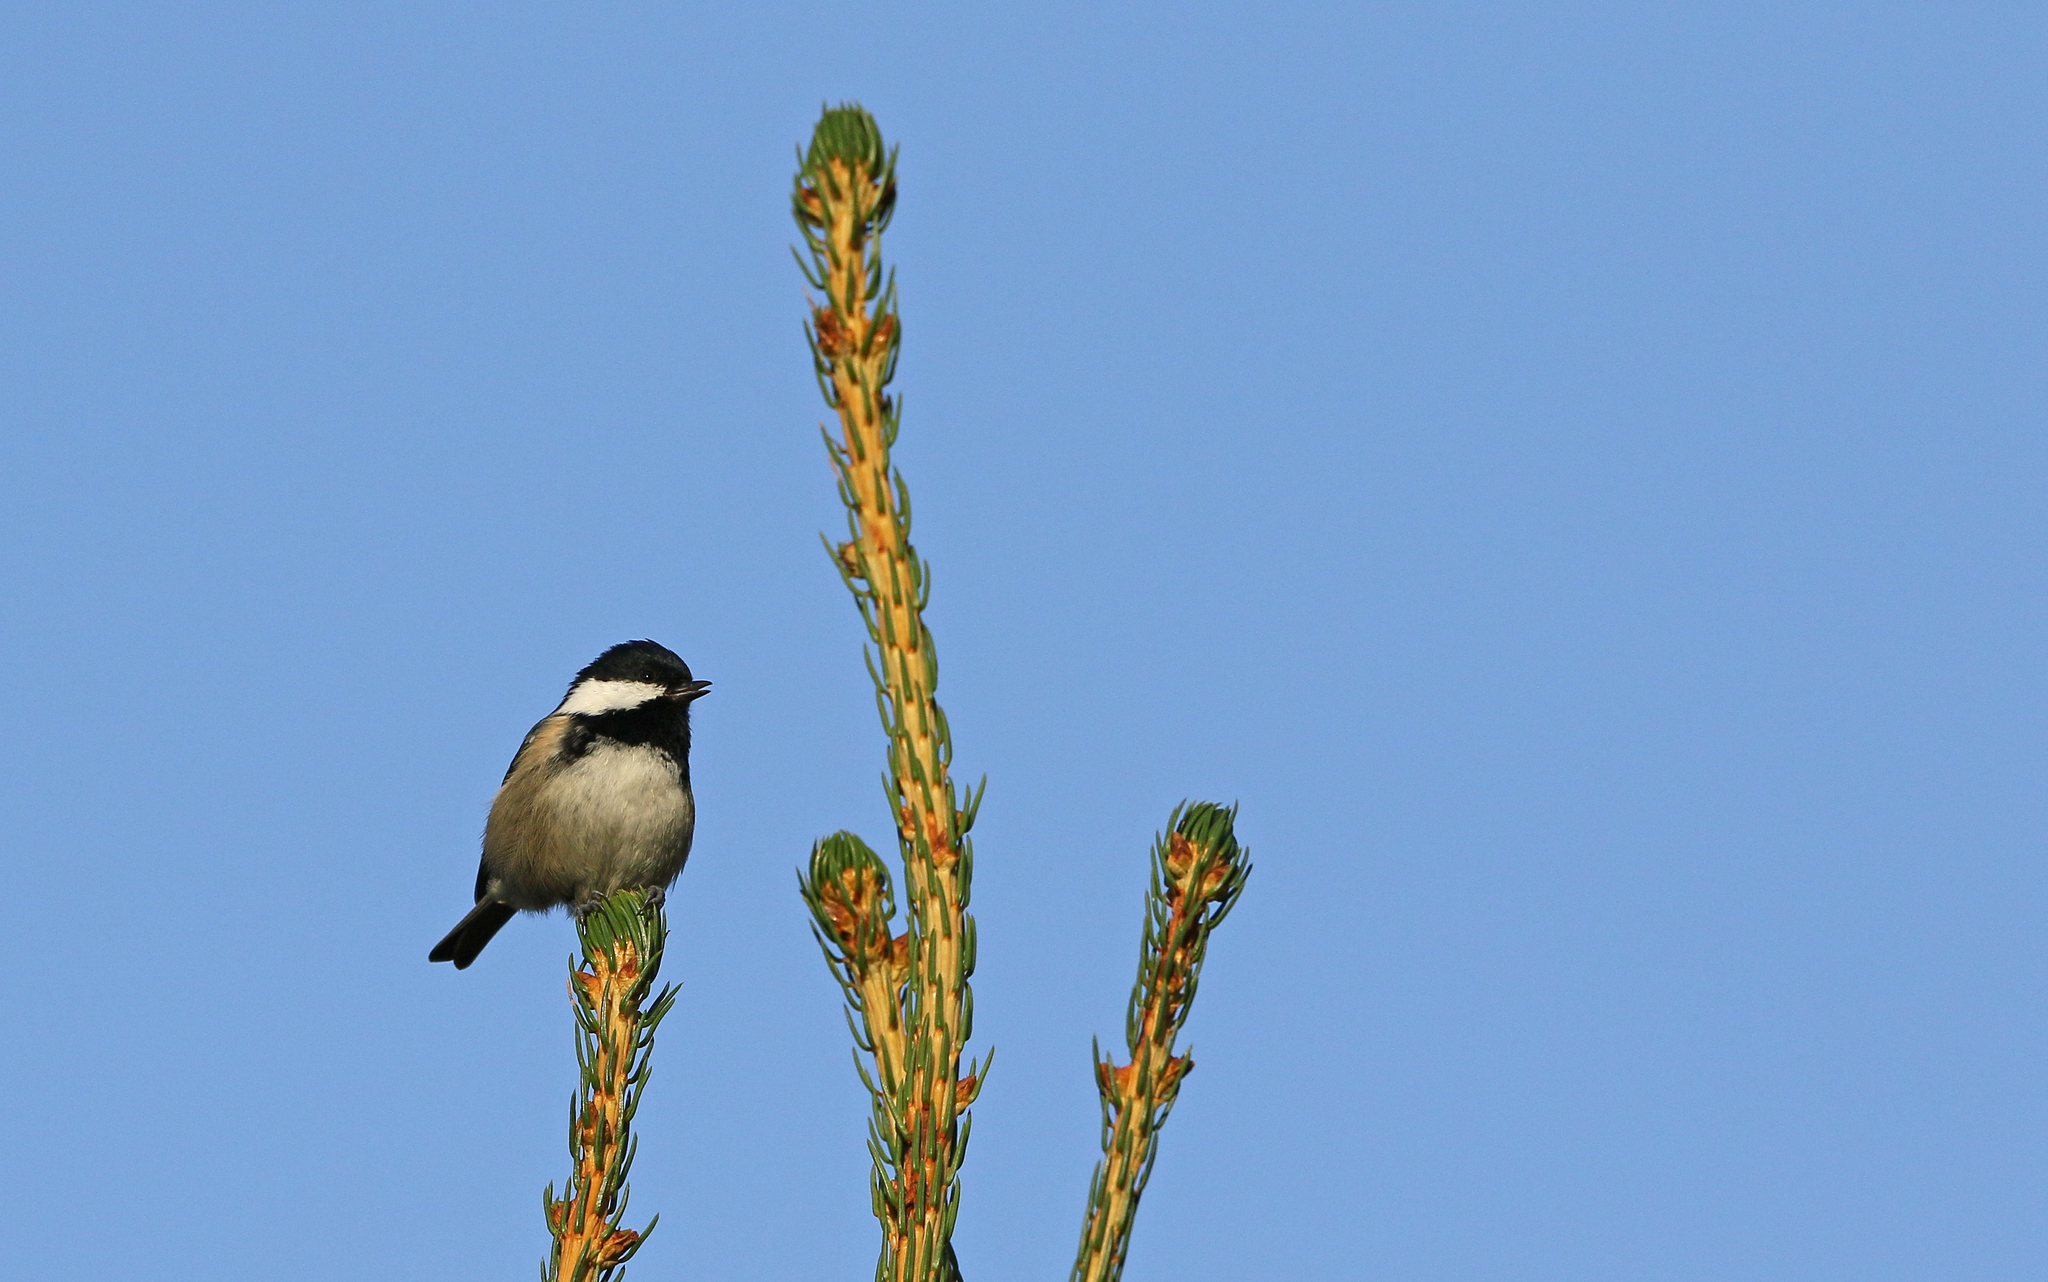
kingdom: Animalia
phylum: Chordata
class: Aves
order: Passeriformes
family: Paridae
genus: Periparus
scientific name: Periparus ater
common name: Coal tit
